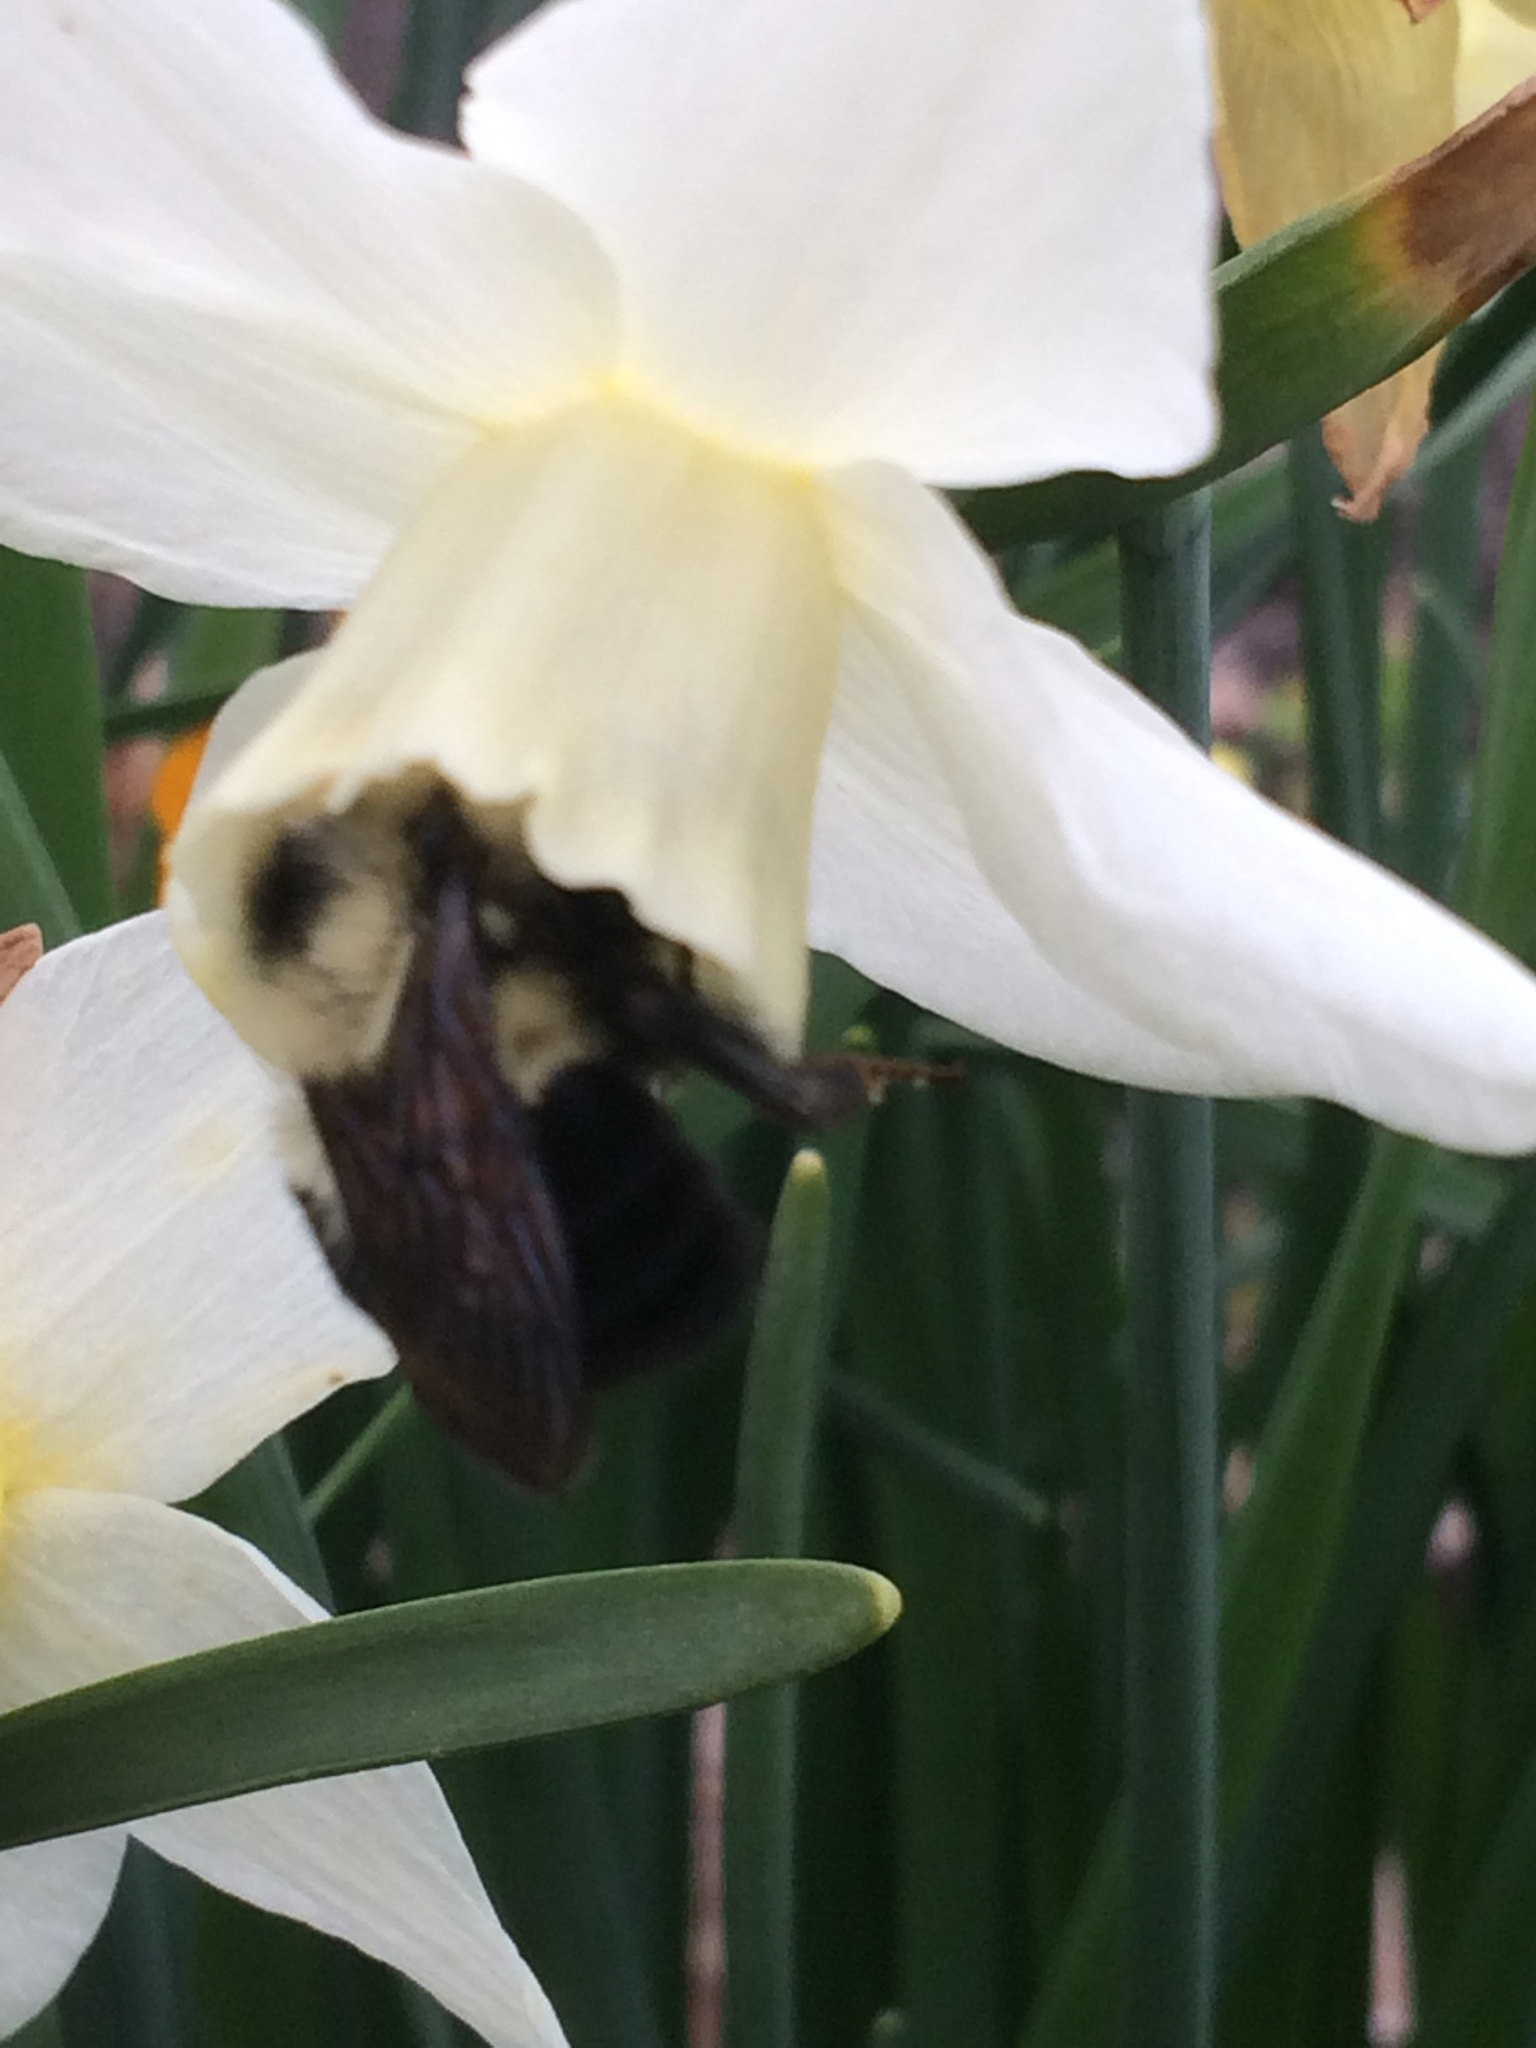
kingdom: Animalia
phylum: Arthropoda
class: Insecta
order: Hymenoptera
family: Apidae
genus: Bombus
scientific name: Bombus bimaculatus
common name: Two-spotted bumble bee
